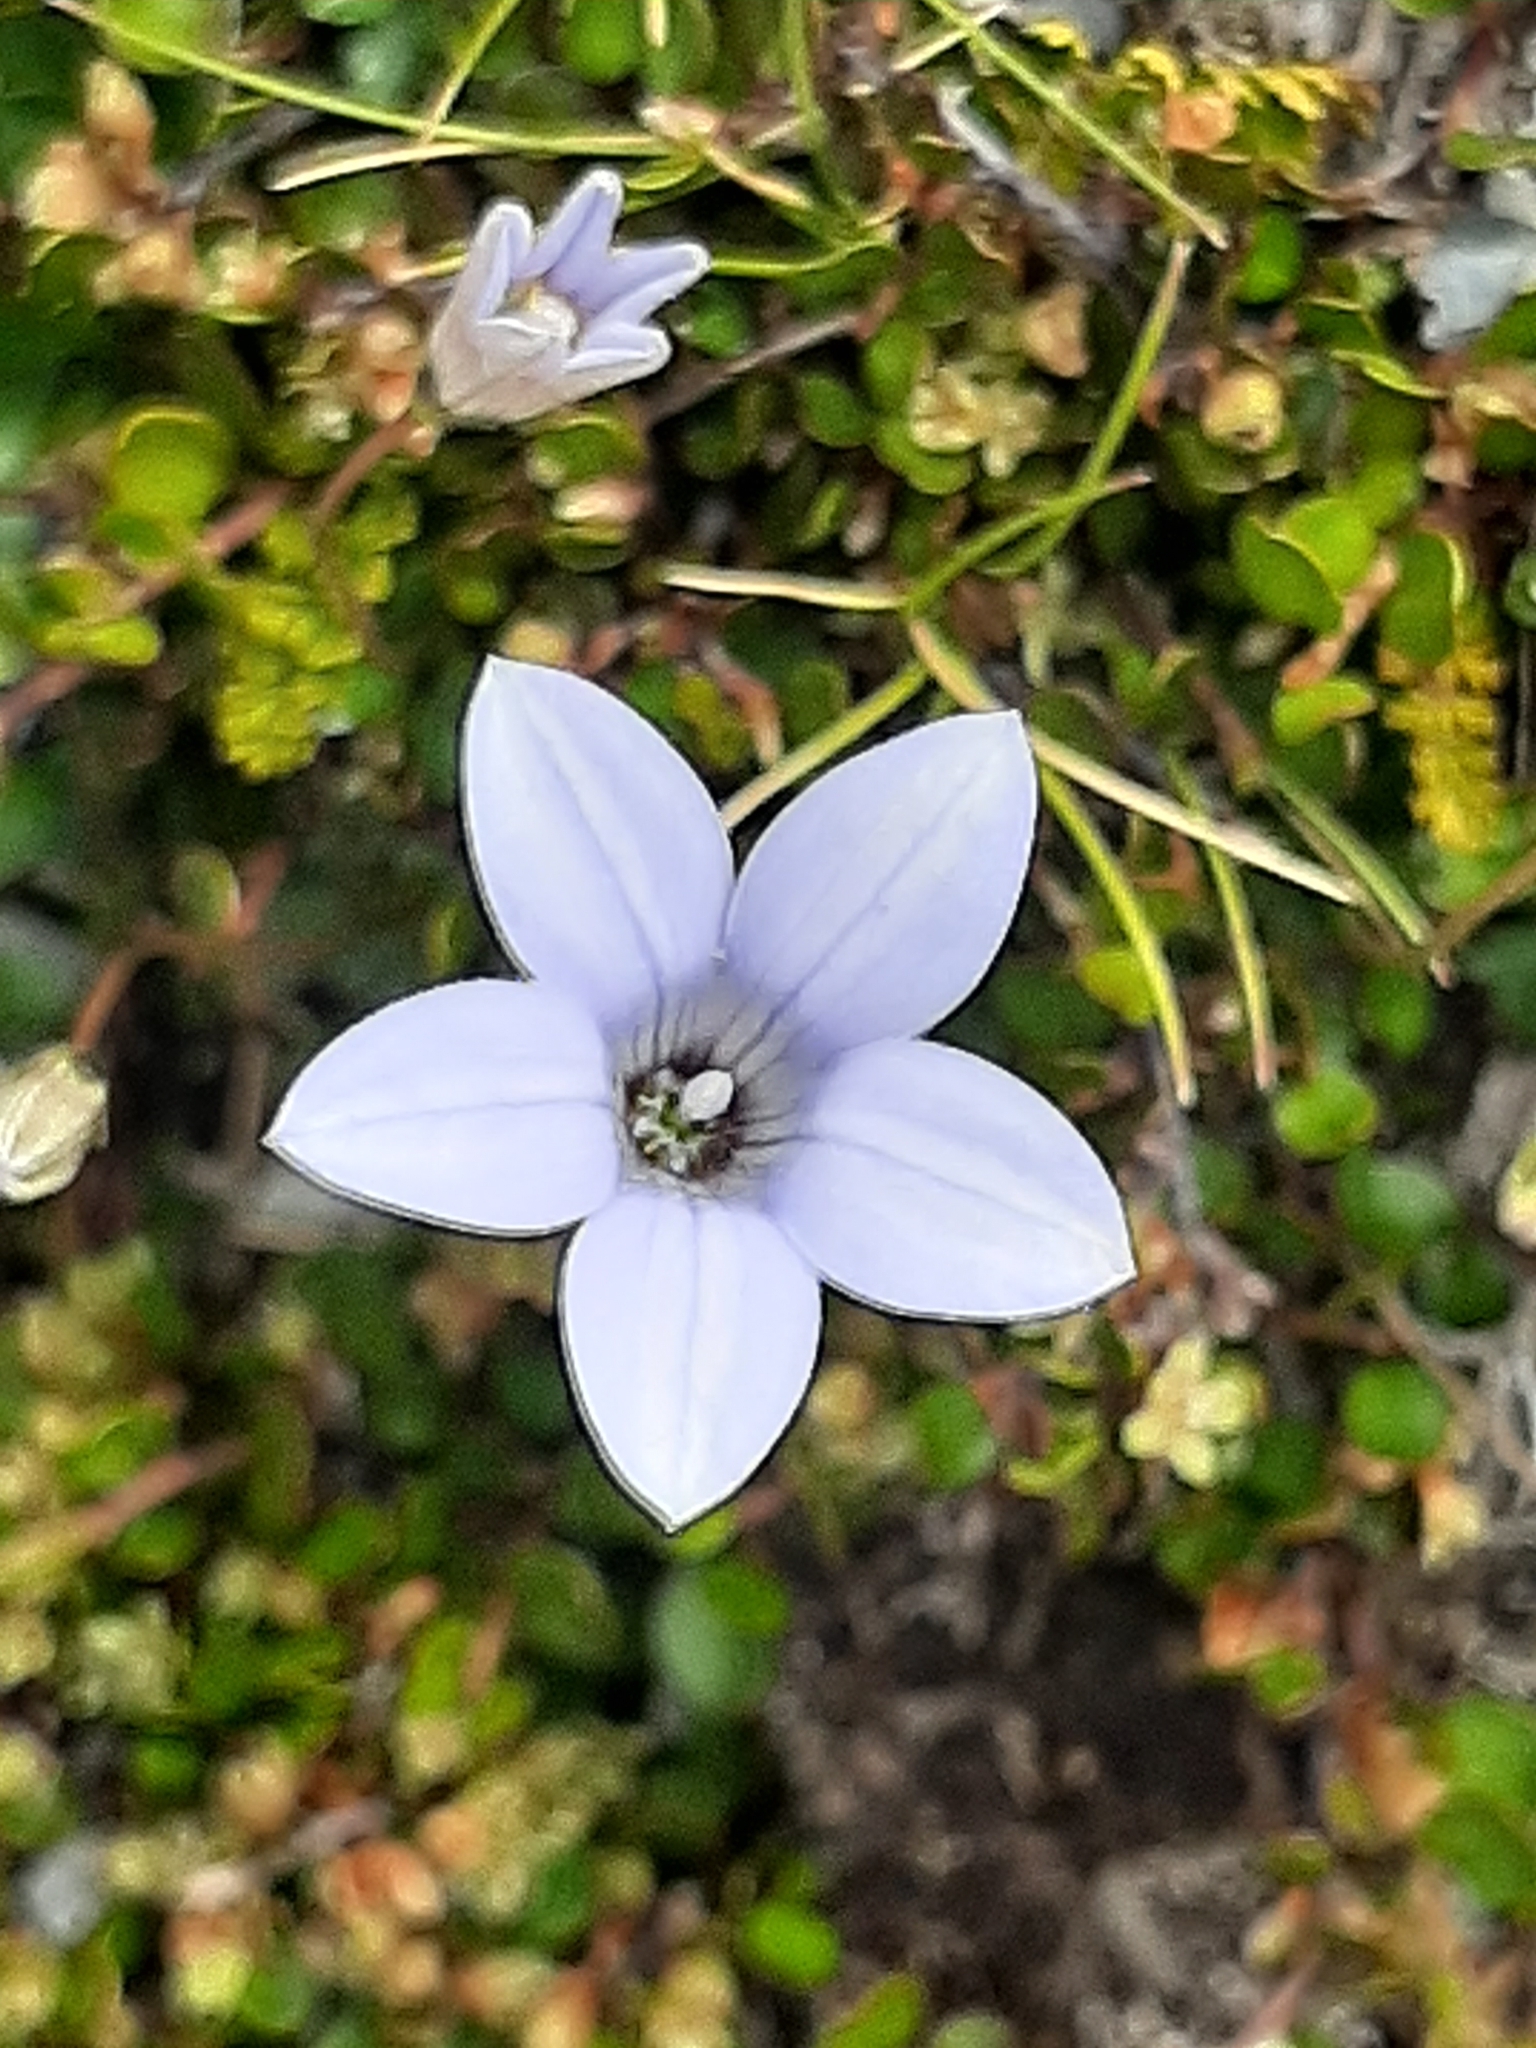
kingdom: Plantae
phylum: Tracheophyta
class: Magnoliopsida
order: Asterales
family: Campanulaceae
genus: Wahlenbergia
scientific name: Wahlenbergia albomarginata
